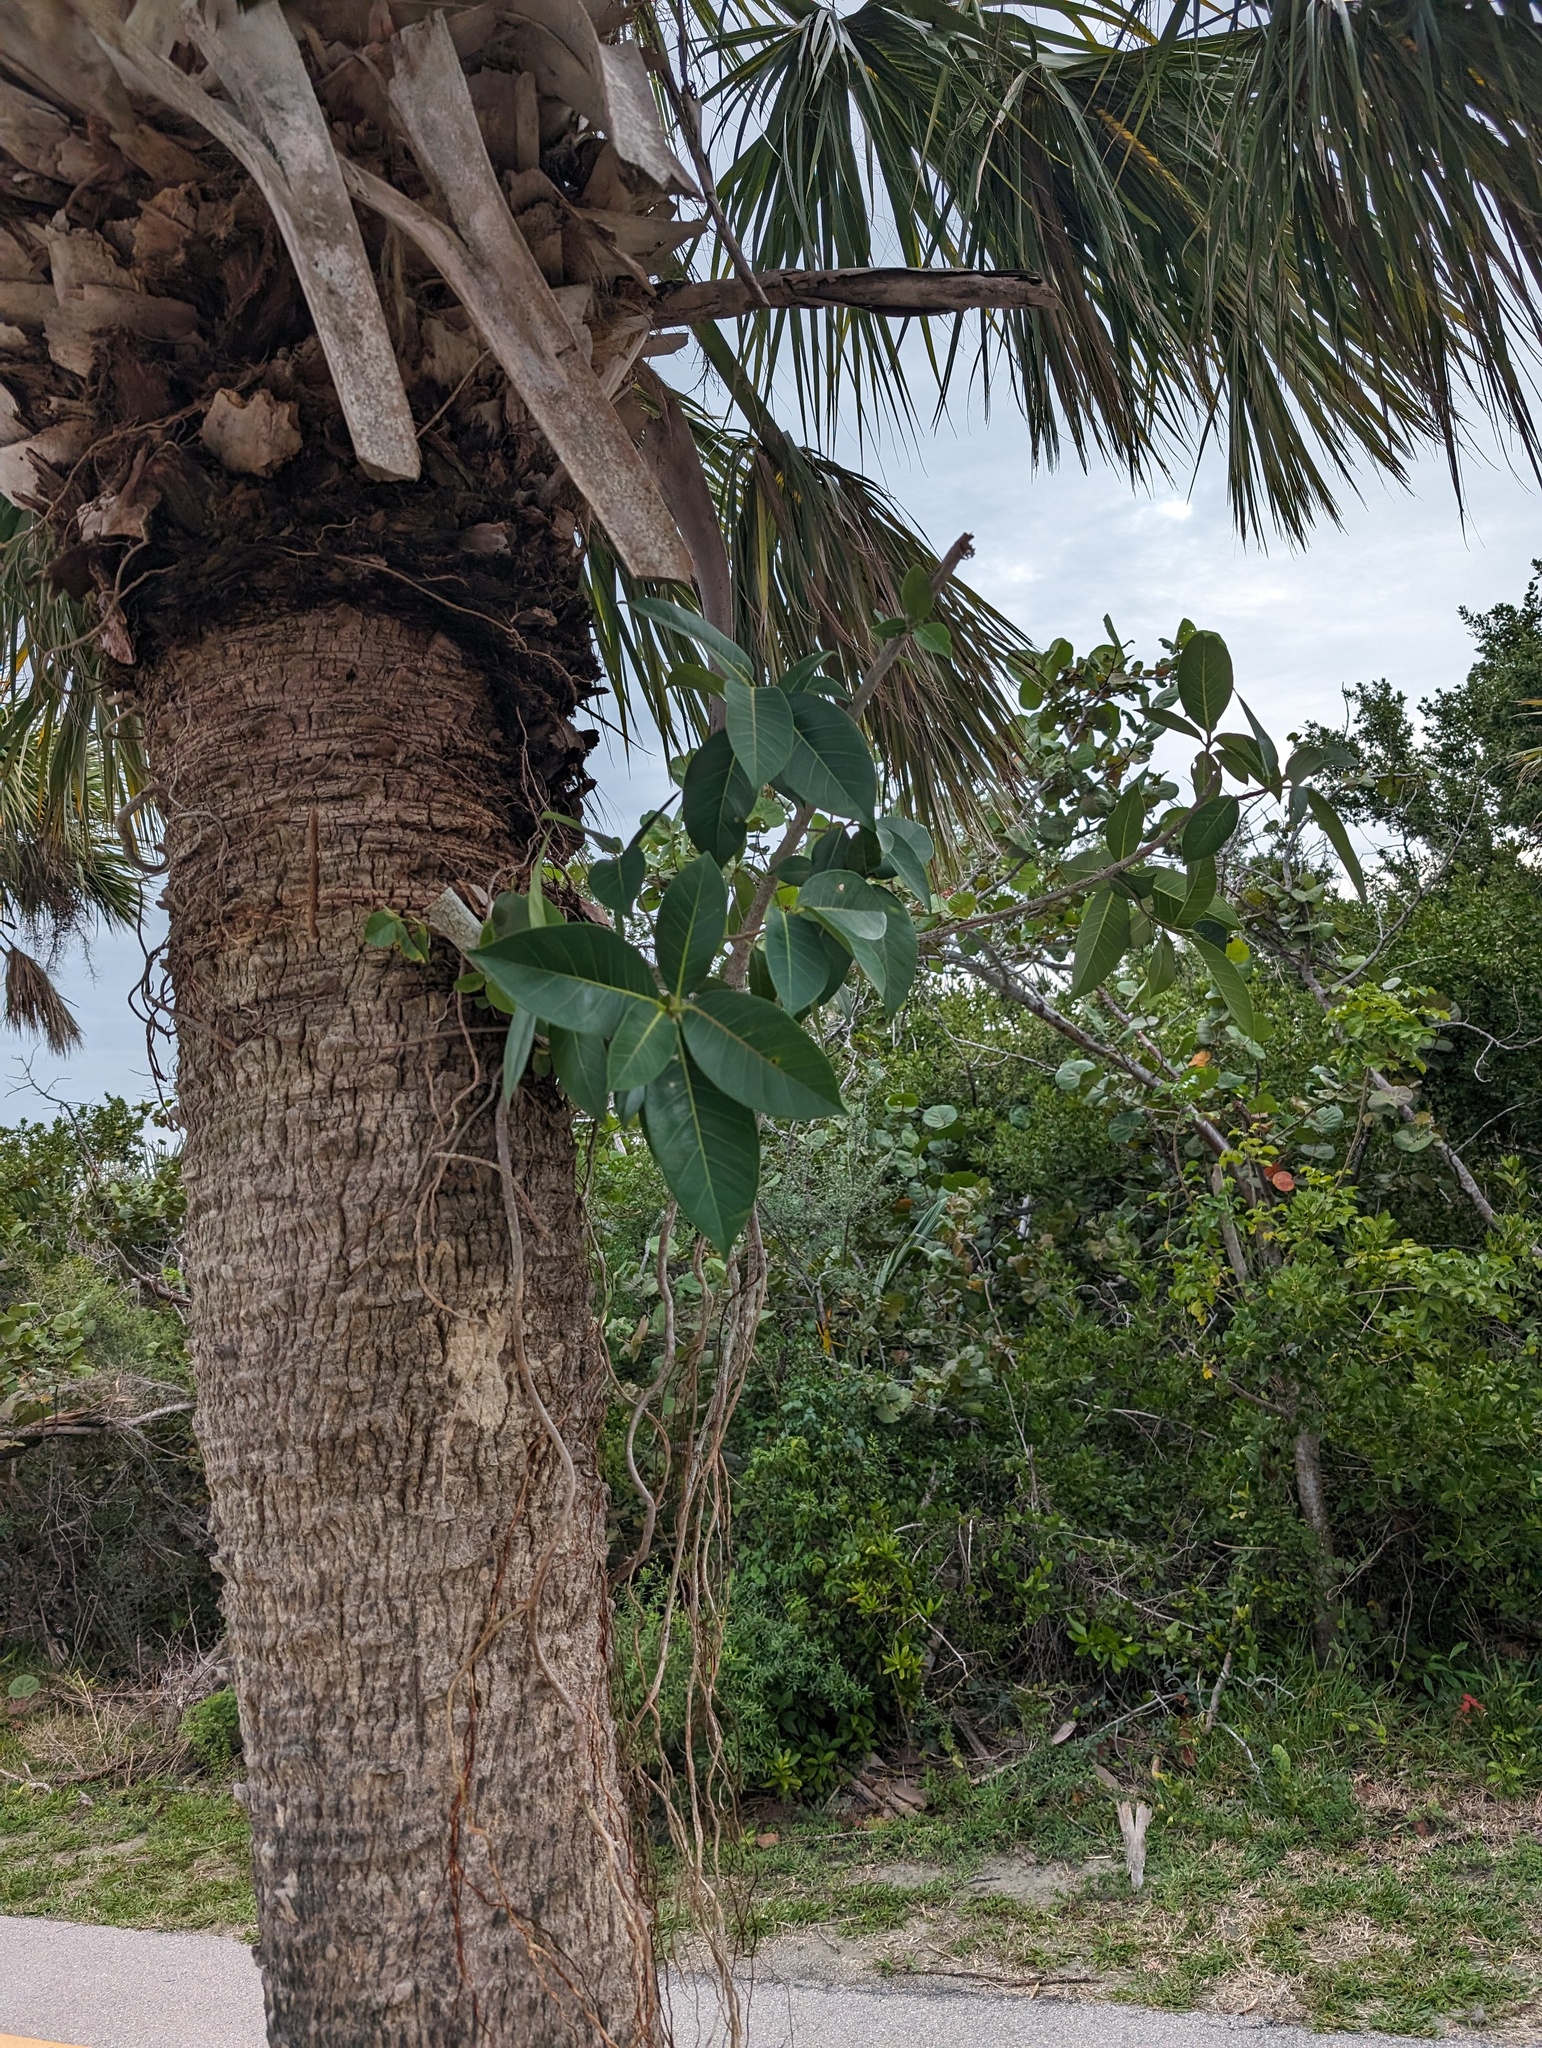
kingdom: Plantae
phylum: Tracheophyta
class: Magnoliopsida
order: Rosales
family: Moraceae
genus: Ficus
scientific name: Ficus aurea
